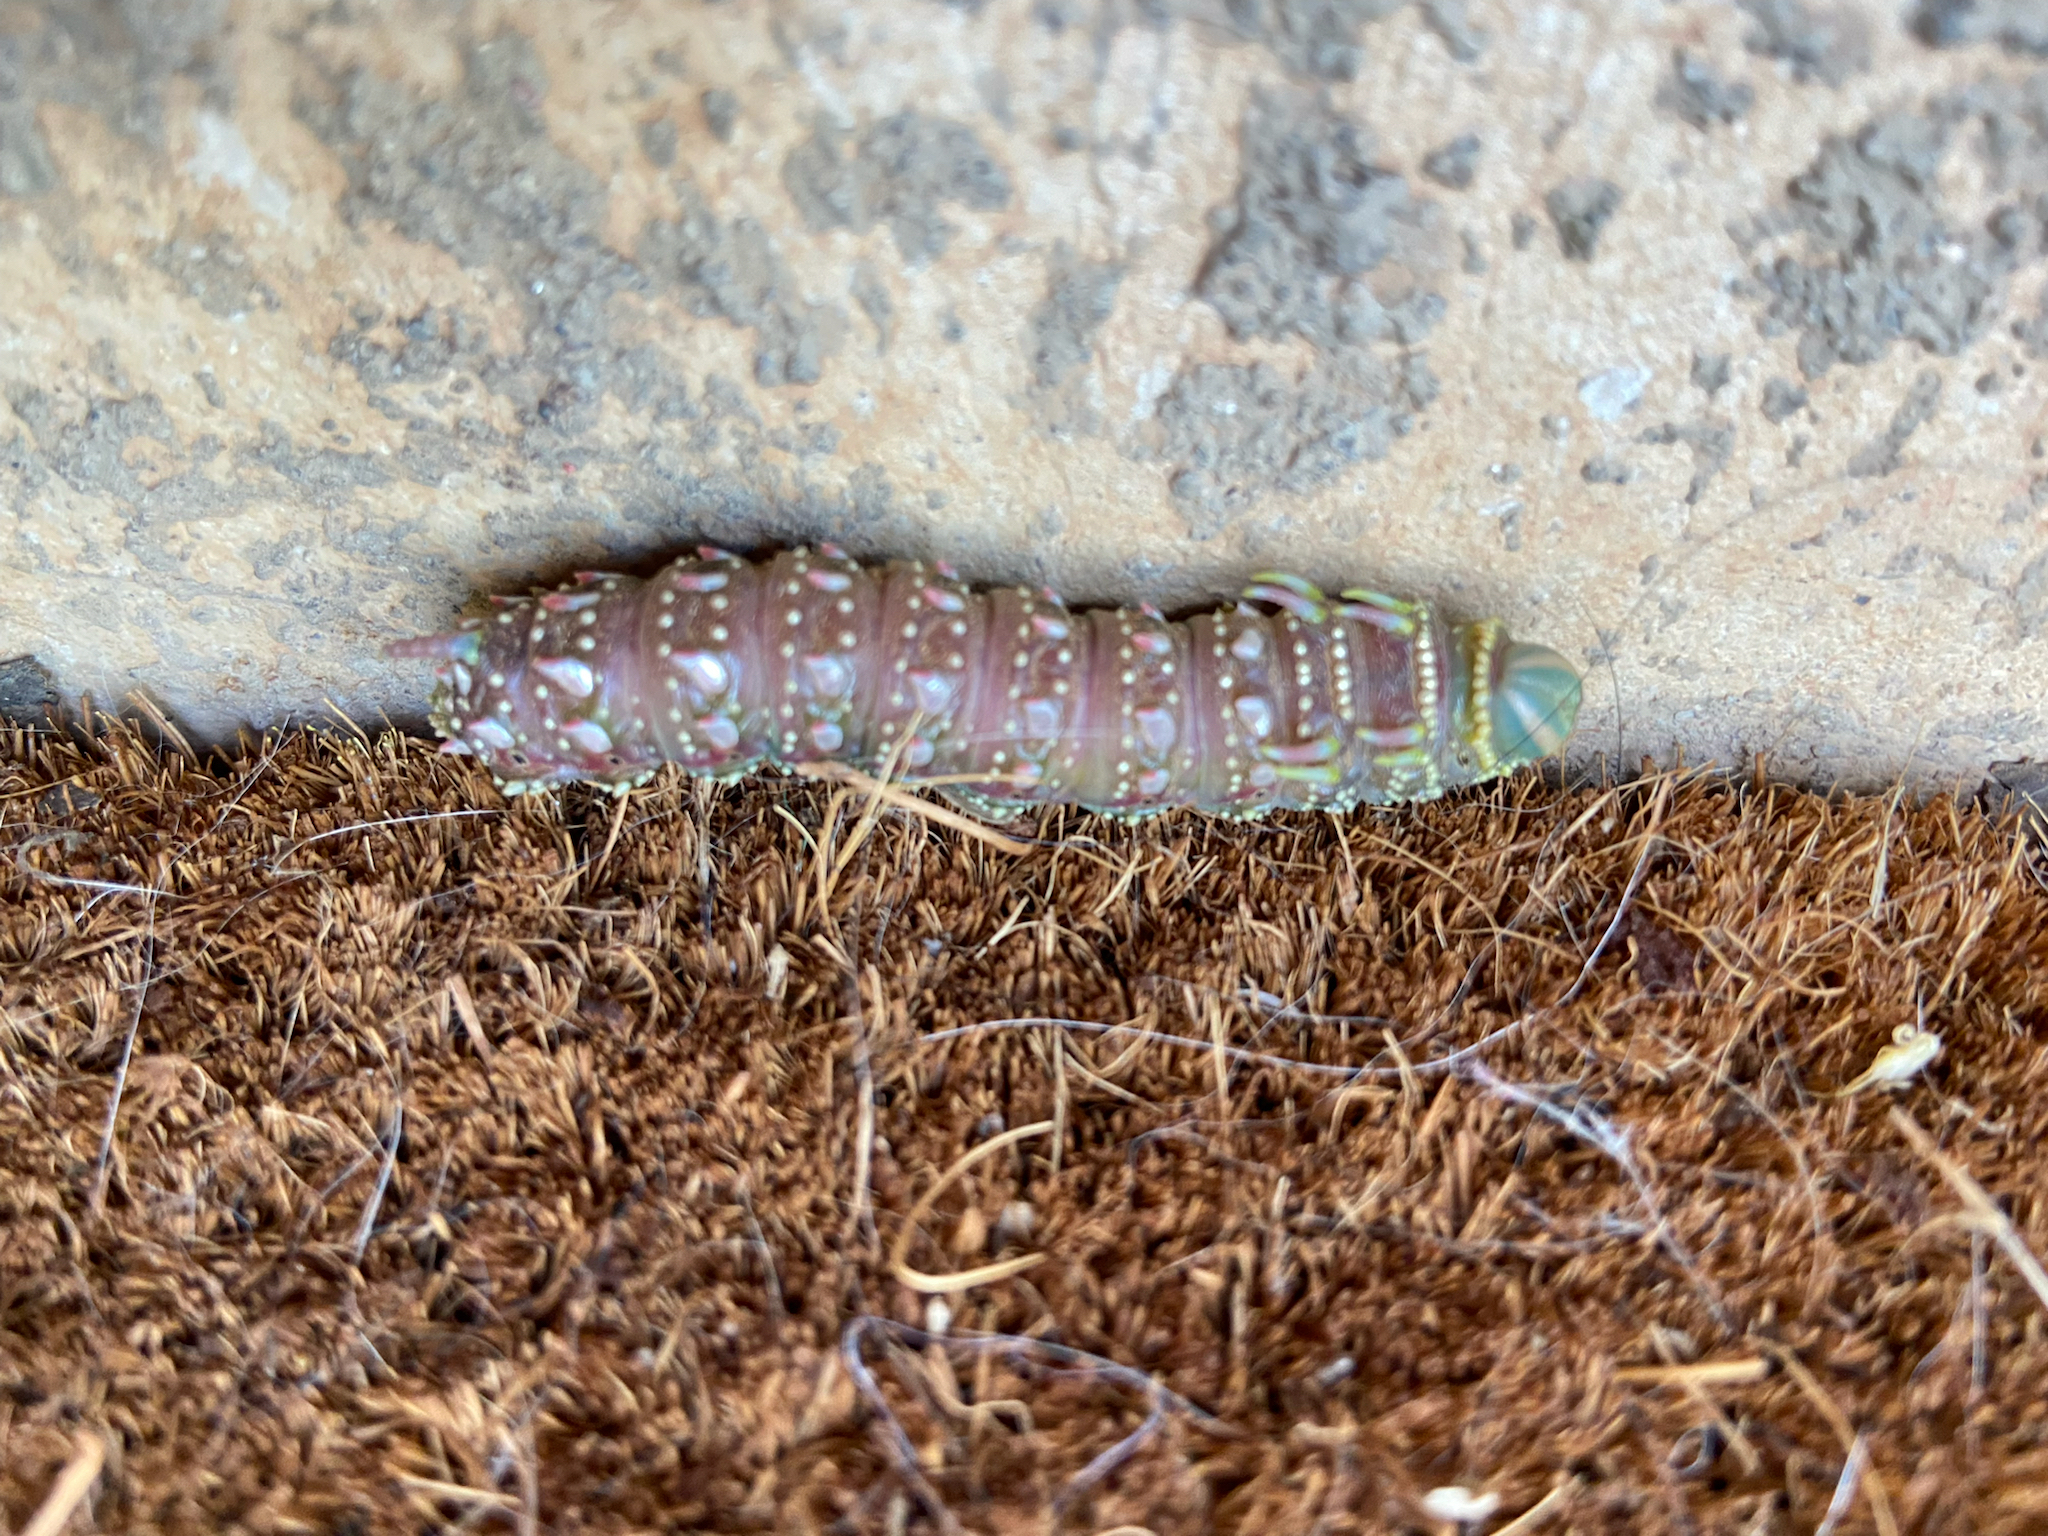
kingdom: Animalia
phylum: Arthropoda
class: Insecta
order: Lepidoptera
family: Saturniidae
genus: Syssphinx
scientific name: Syssphinx hubbardi
